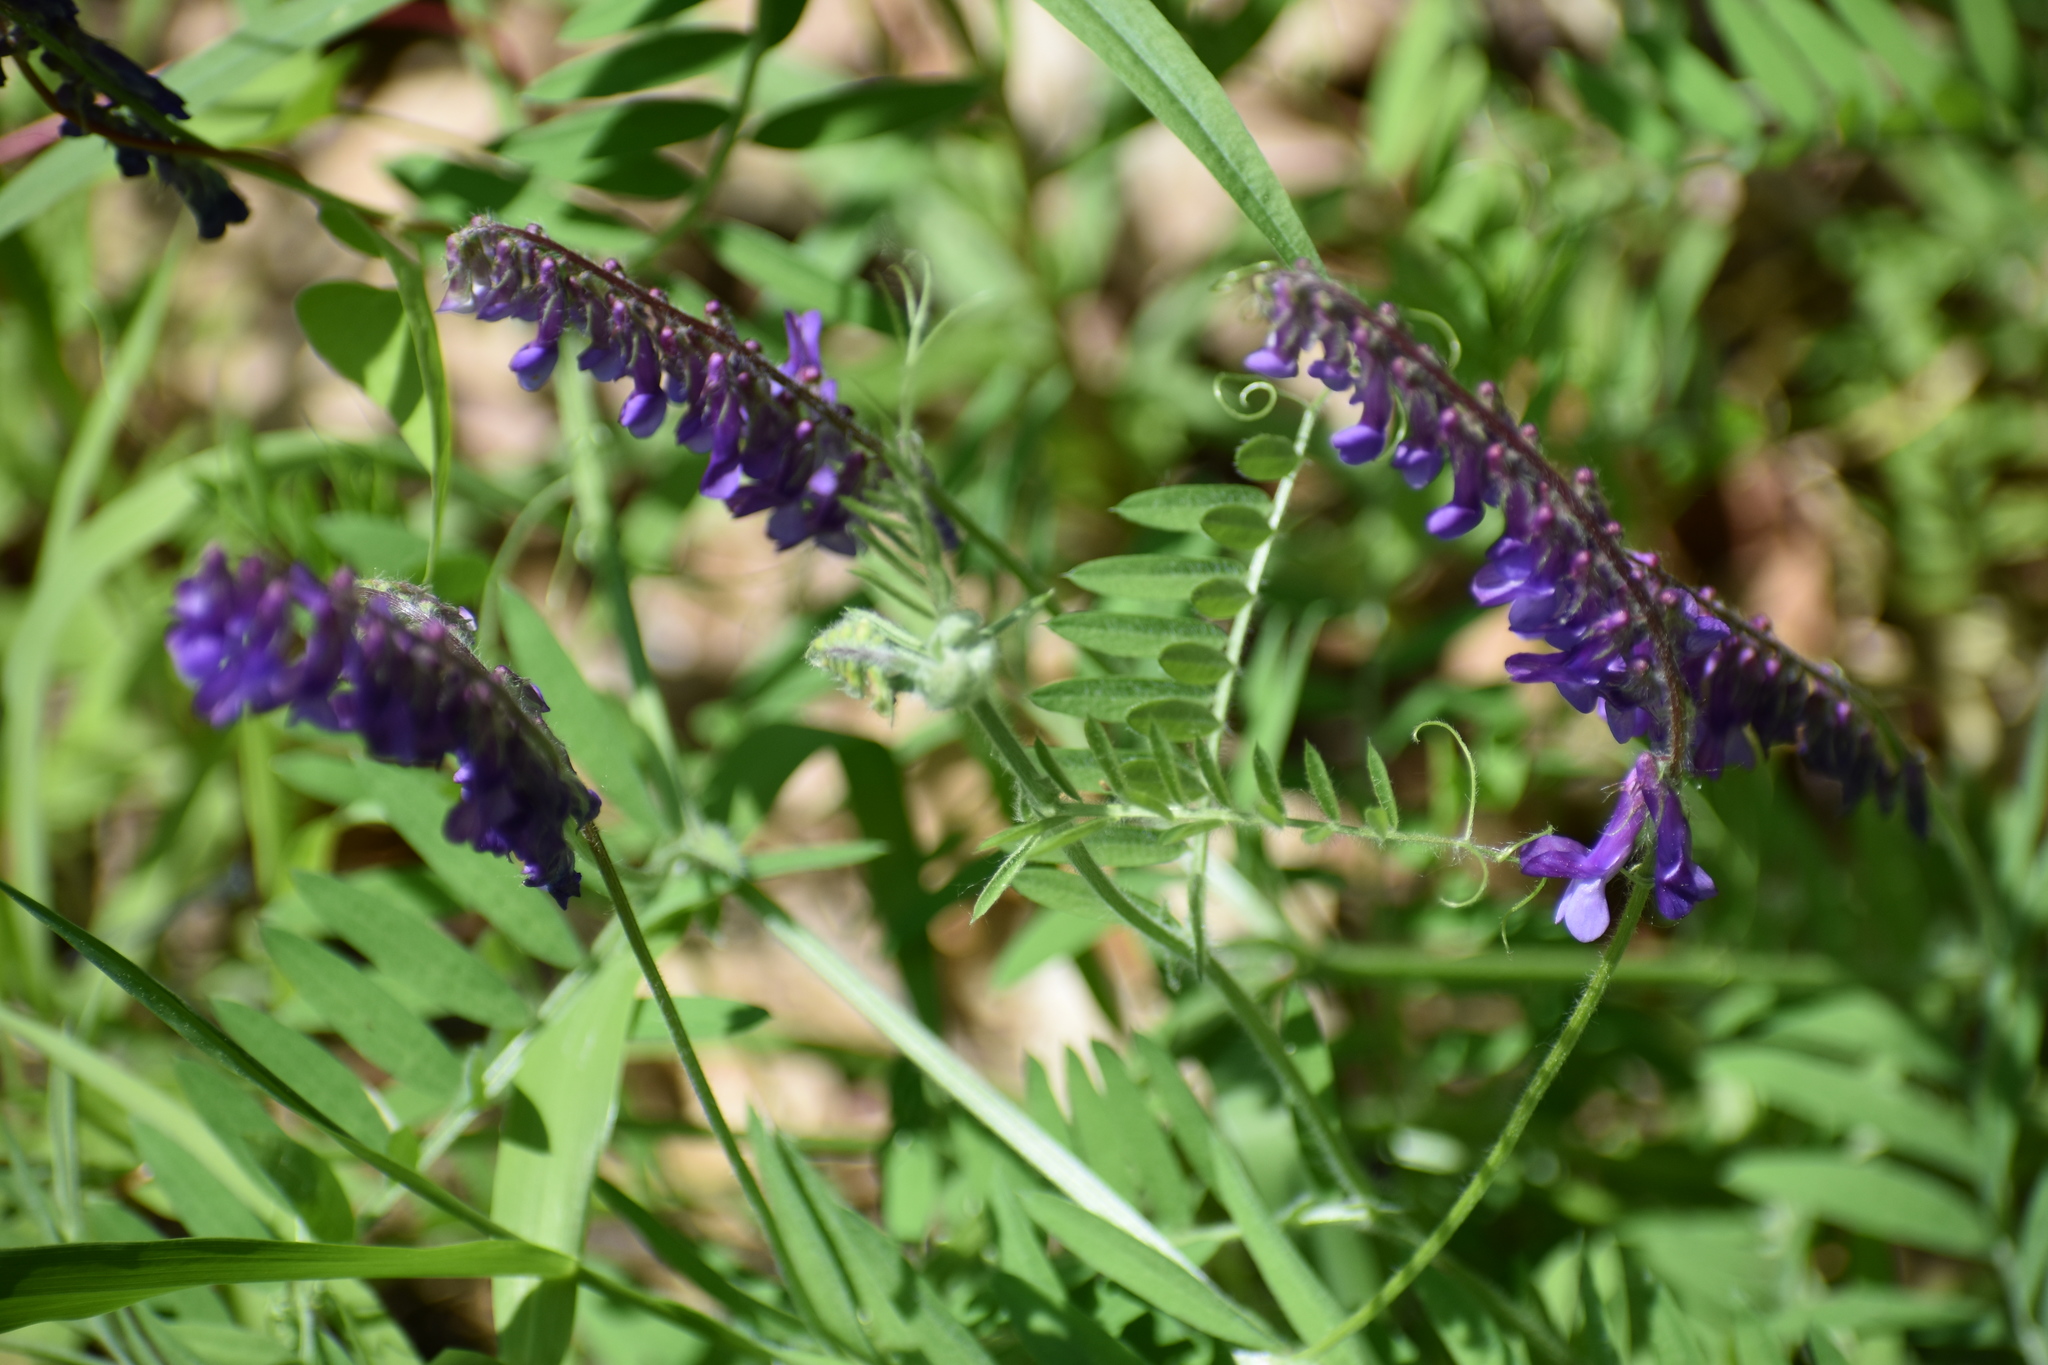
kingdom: Plantae
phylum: Tracheophyta
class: Magnoliopsida
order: Fabales
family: Fabaceae
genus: Vicia
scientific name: Vicia villosa
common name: Fodder vetch
